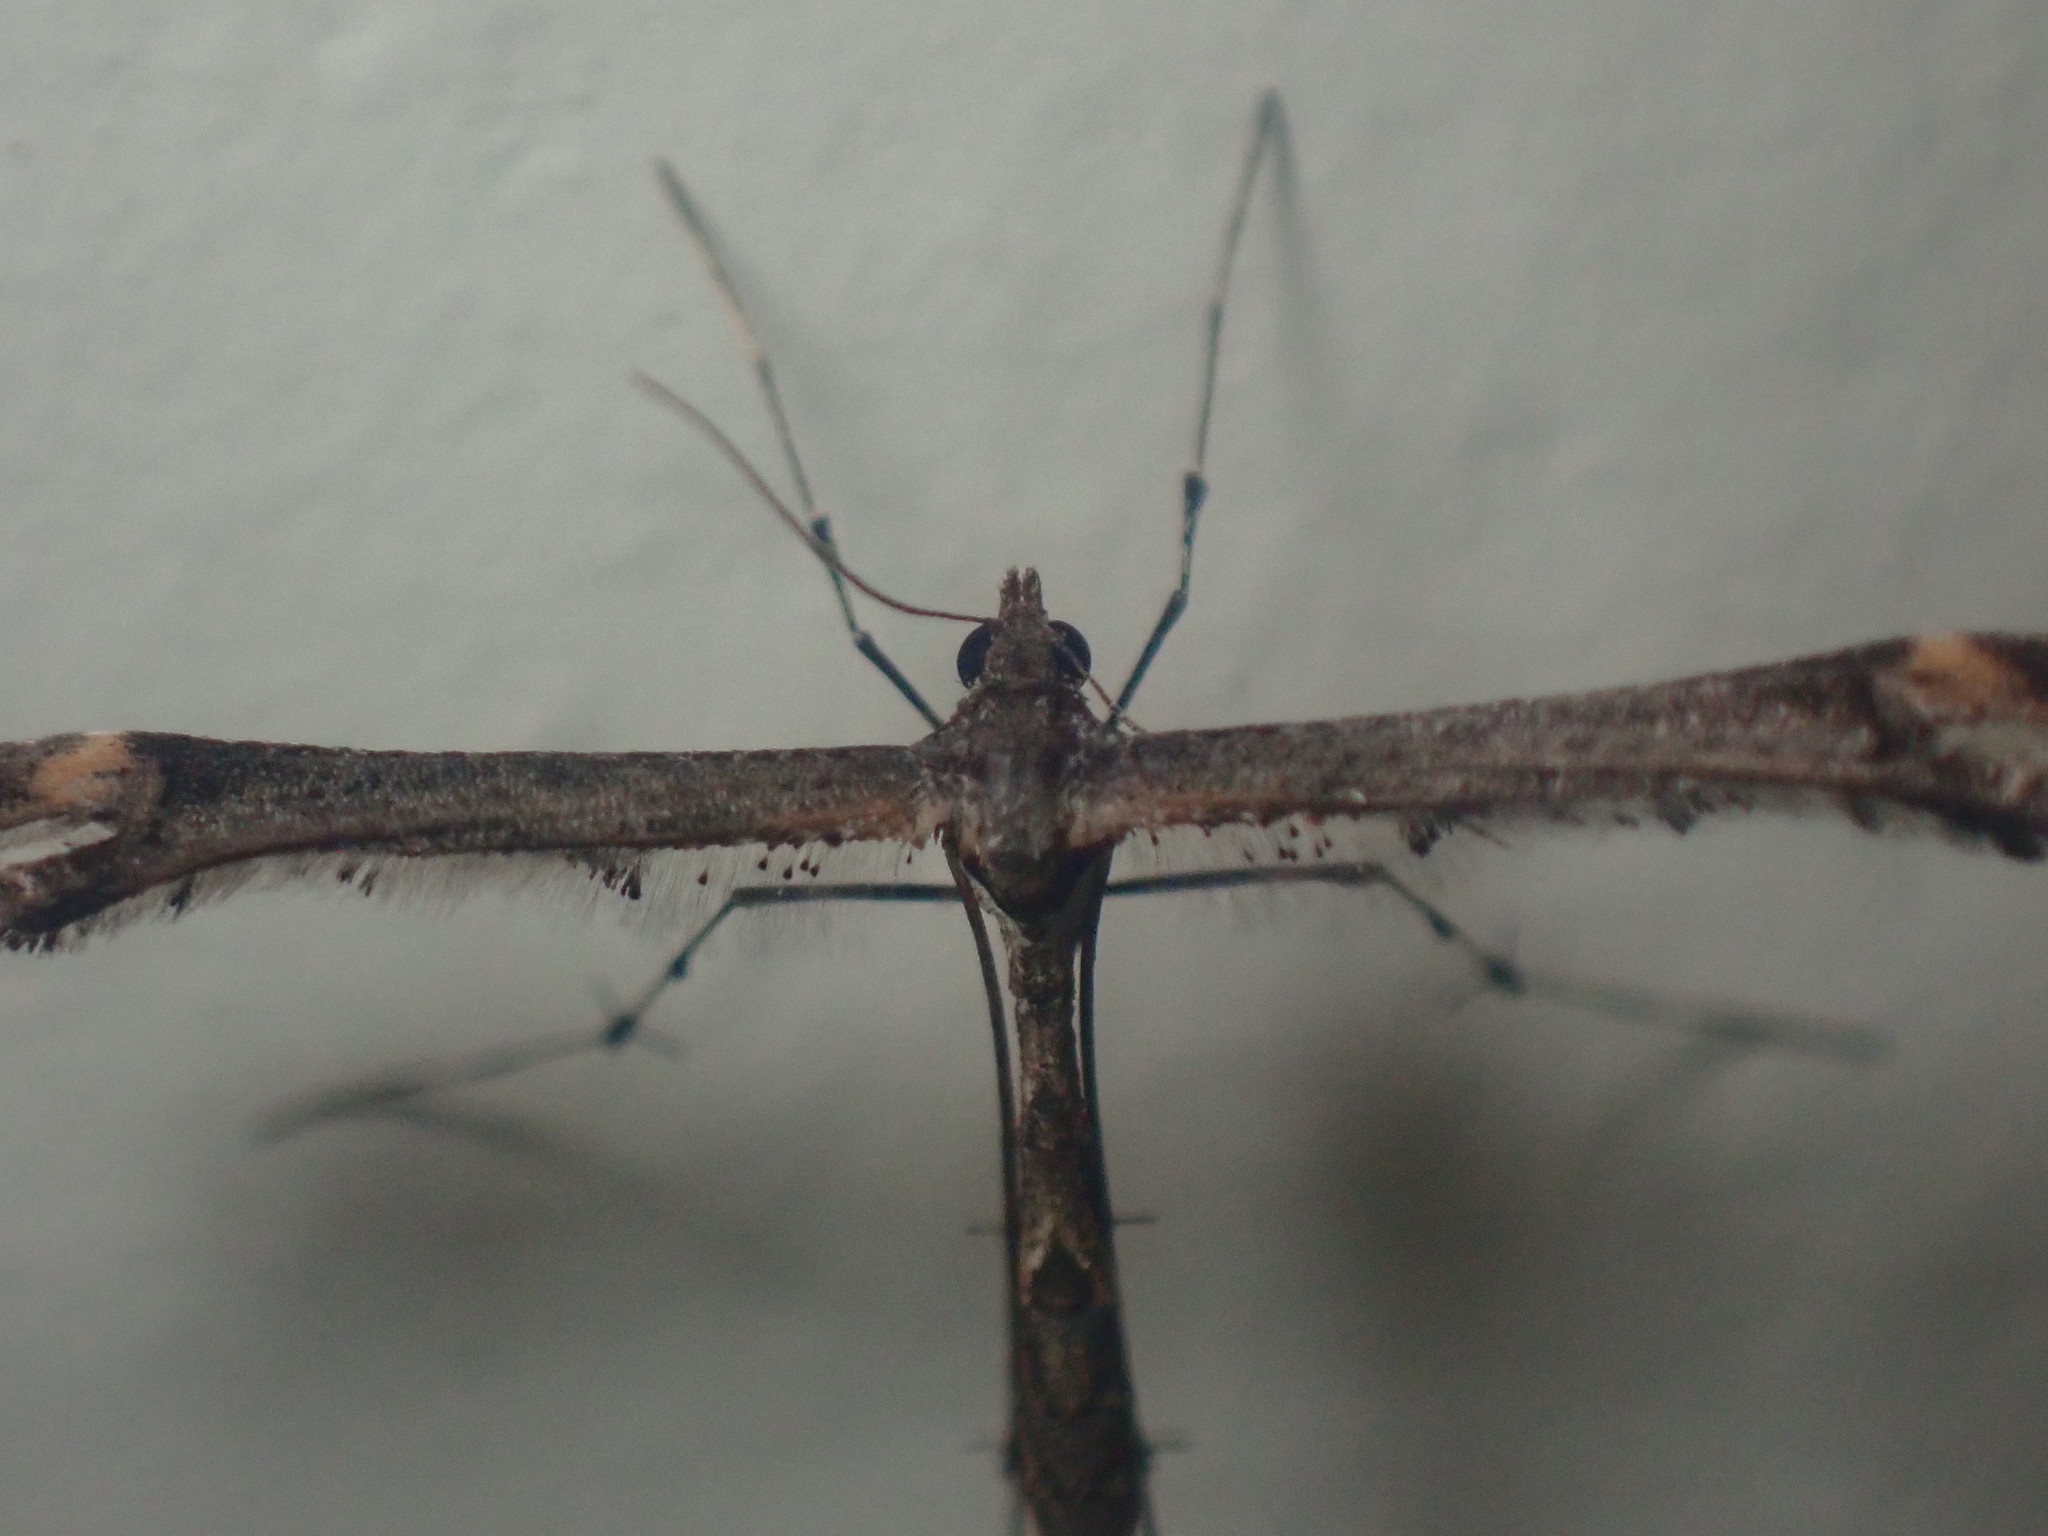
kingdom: Animalia
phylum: Arthropoda
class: Insecta
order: Lepidoptera
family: Pterophoridae
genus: Anstenoptilia
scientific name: Anstenoptilia marmarodactyla
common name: Moth
